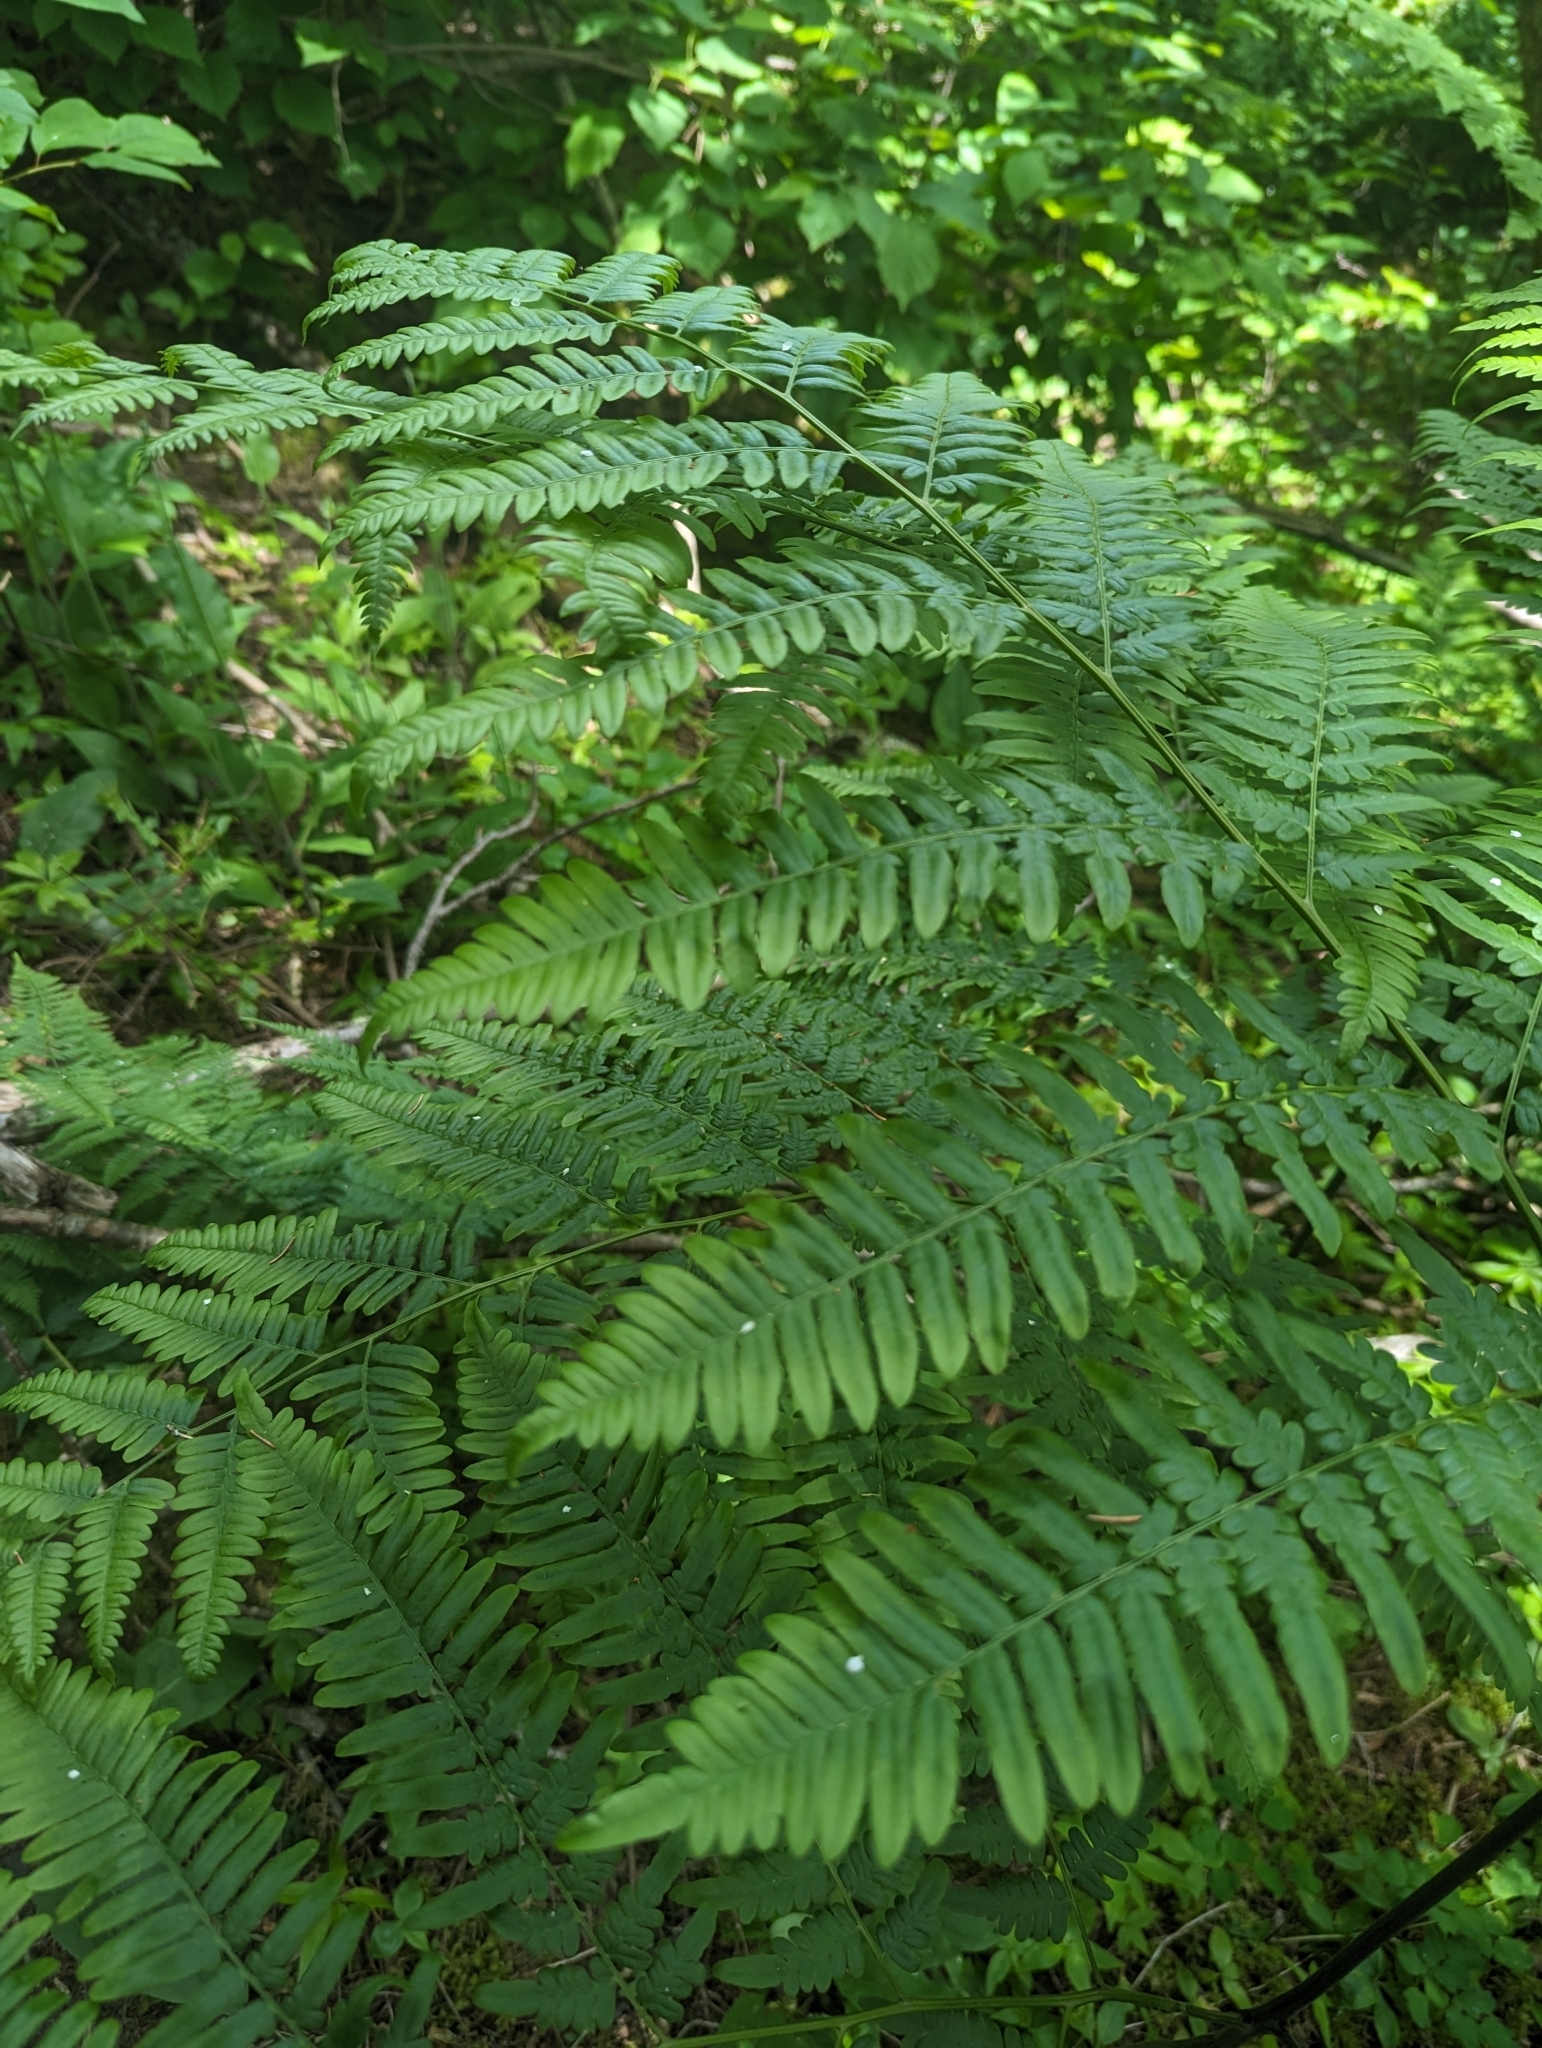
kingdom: Plantae
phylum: Tracheophyta
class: Polypodiopsida
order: Polypodiales
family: Dennstaedtiaceae
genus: Pteridium
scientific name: Pteridium aquilinum
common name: Bracken
